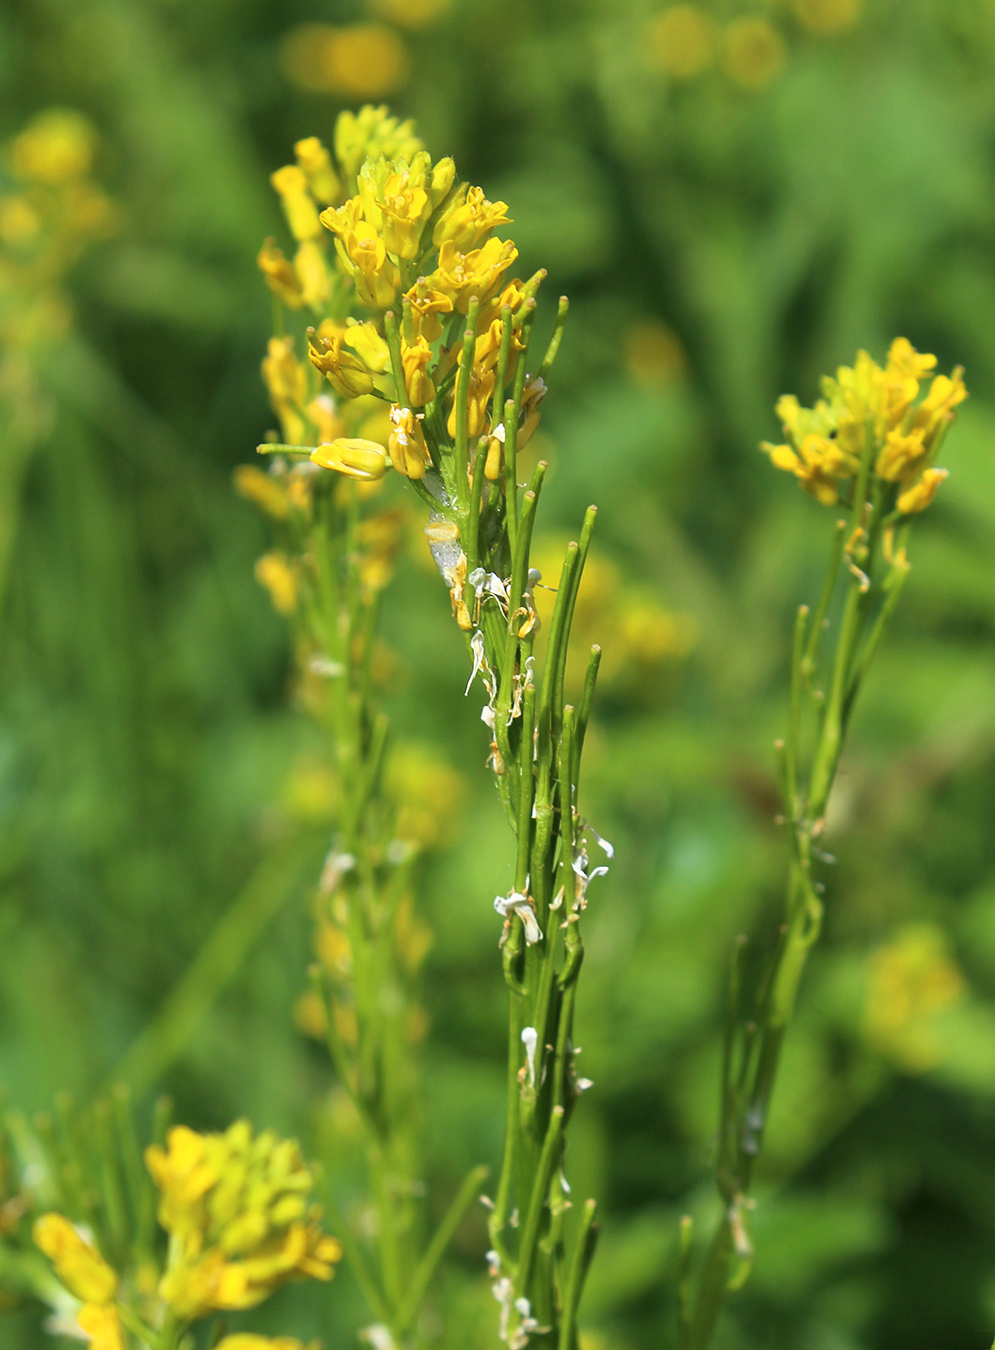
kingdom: Plantae
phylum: Tracheophyta
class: Magnoliopsida
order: Brassicales
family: Brassicaceae
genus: Barbarea
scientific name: Barbarea stricta
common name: Small-flowered winter-cress
